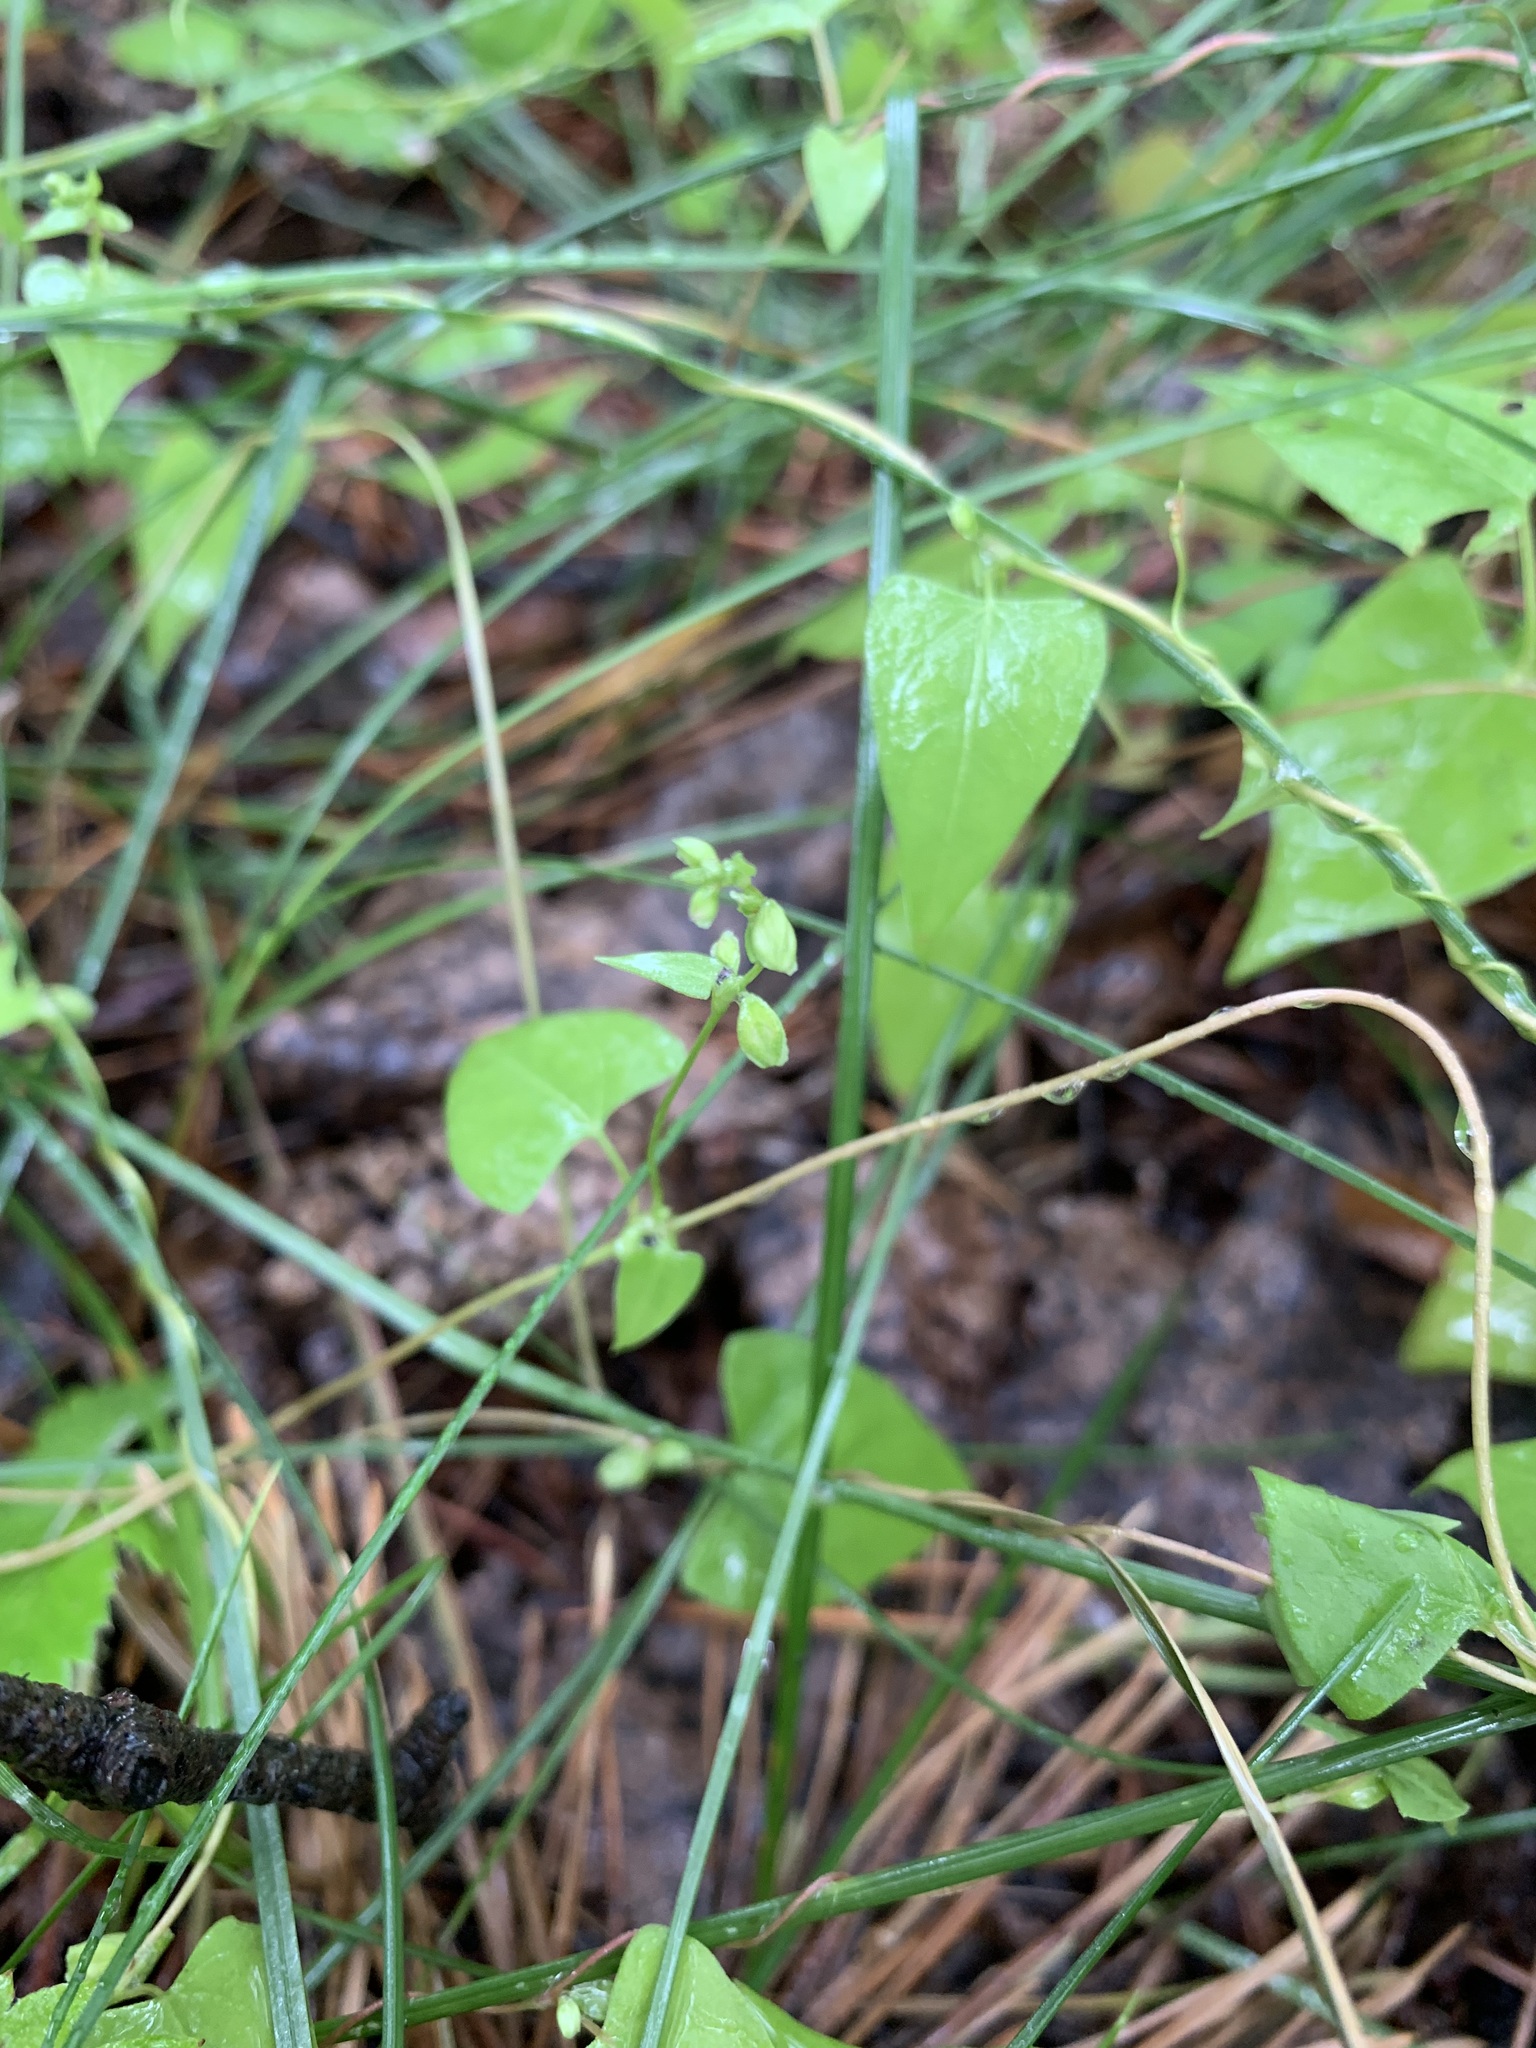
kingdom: Plantae
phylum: Tracheophyta
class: Magnoliopsida
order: Caryophyllales
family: Polygonaceae
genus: Fallopia
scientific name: Fallopia convolvulus
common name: Black bindweed
